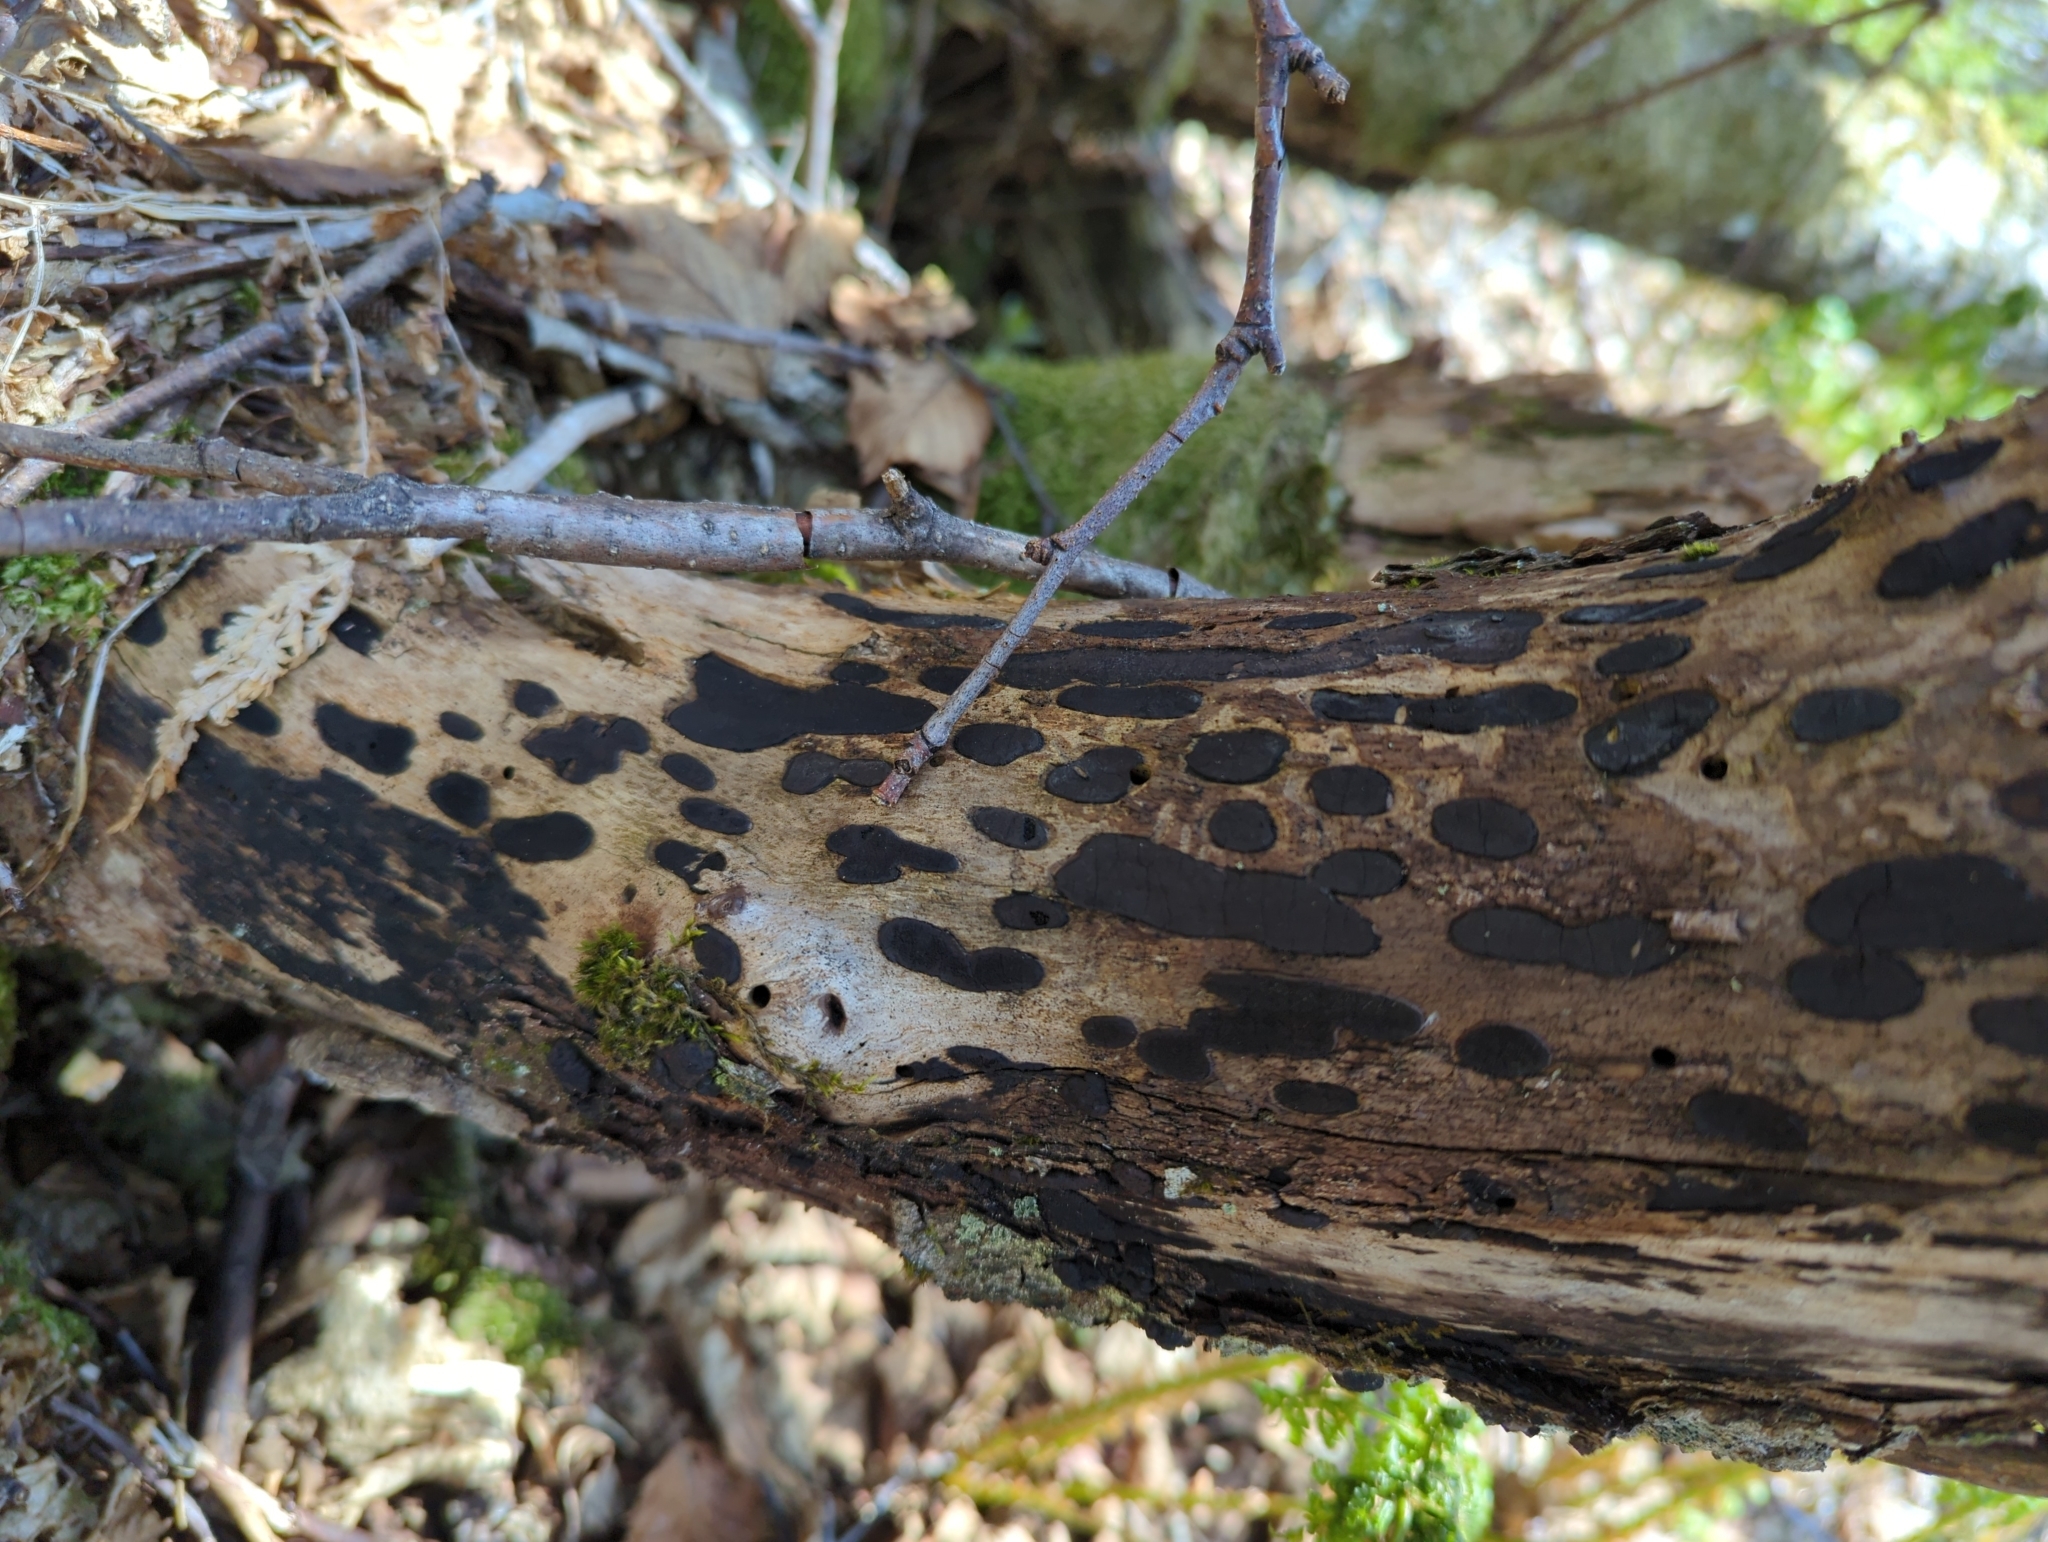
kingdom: Fungi
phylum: Ascomycota
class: Sordariomycetes
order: Xylariales
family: Graphostromataceae
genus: Biscogniauxia
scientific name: Biscogniauxia bartholomaei
